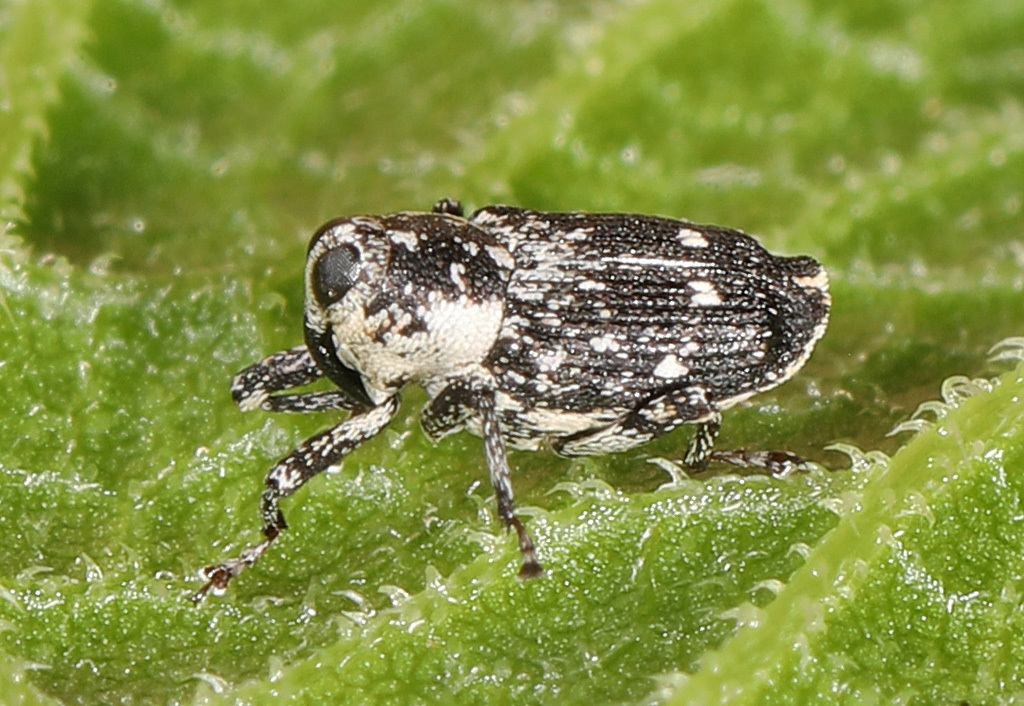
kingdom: Animalia
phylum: Arthropoda
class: Insecta
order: Coleoptera
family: Curculionidae
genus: Cylindrocopturus
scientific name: Cylindrocopturus quercus
